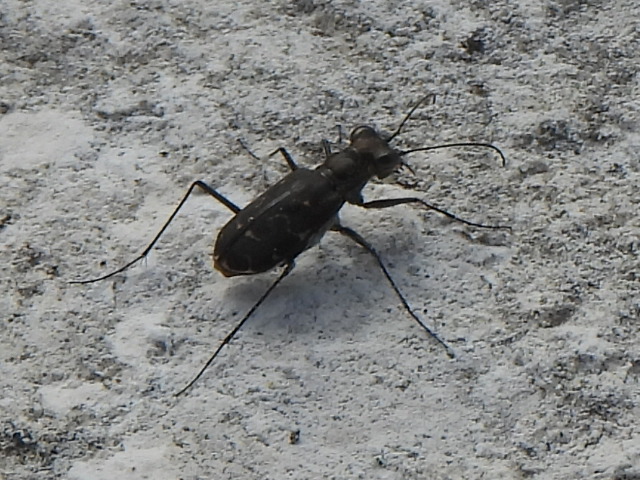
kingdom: Animalia
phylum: Arthropoda
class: Insecta
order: Coleoptera
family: Carabidae
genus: Cicindela
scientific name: Cicindela trifasciata
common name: Mudflat tiger beetle
